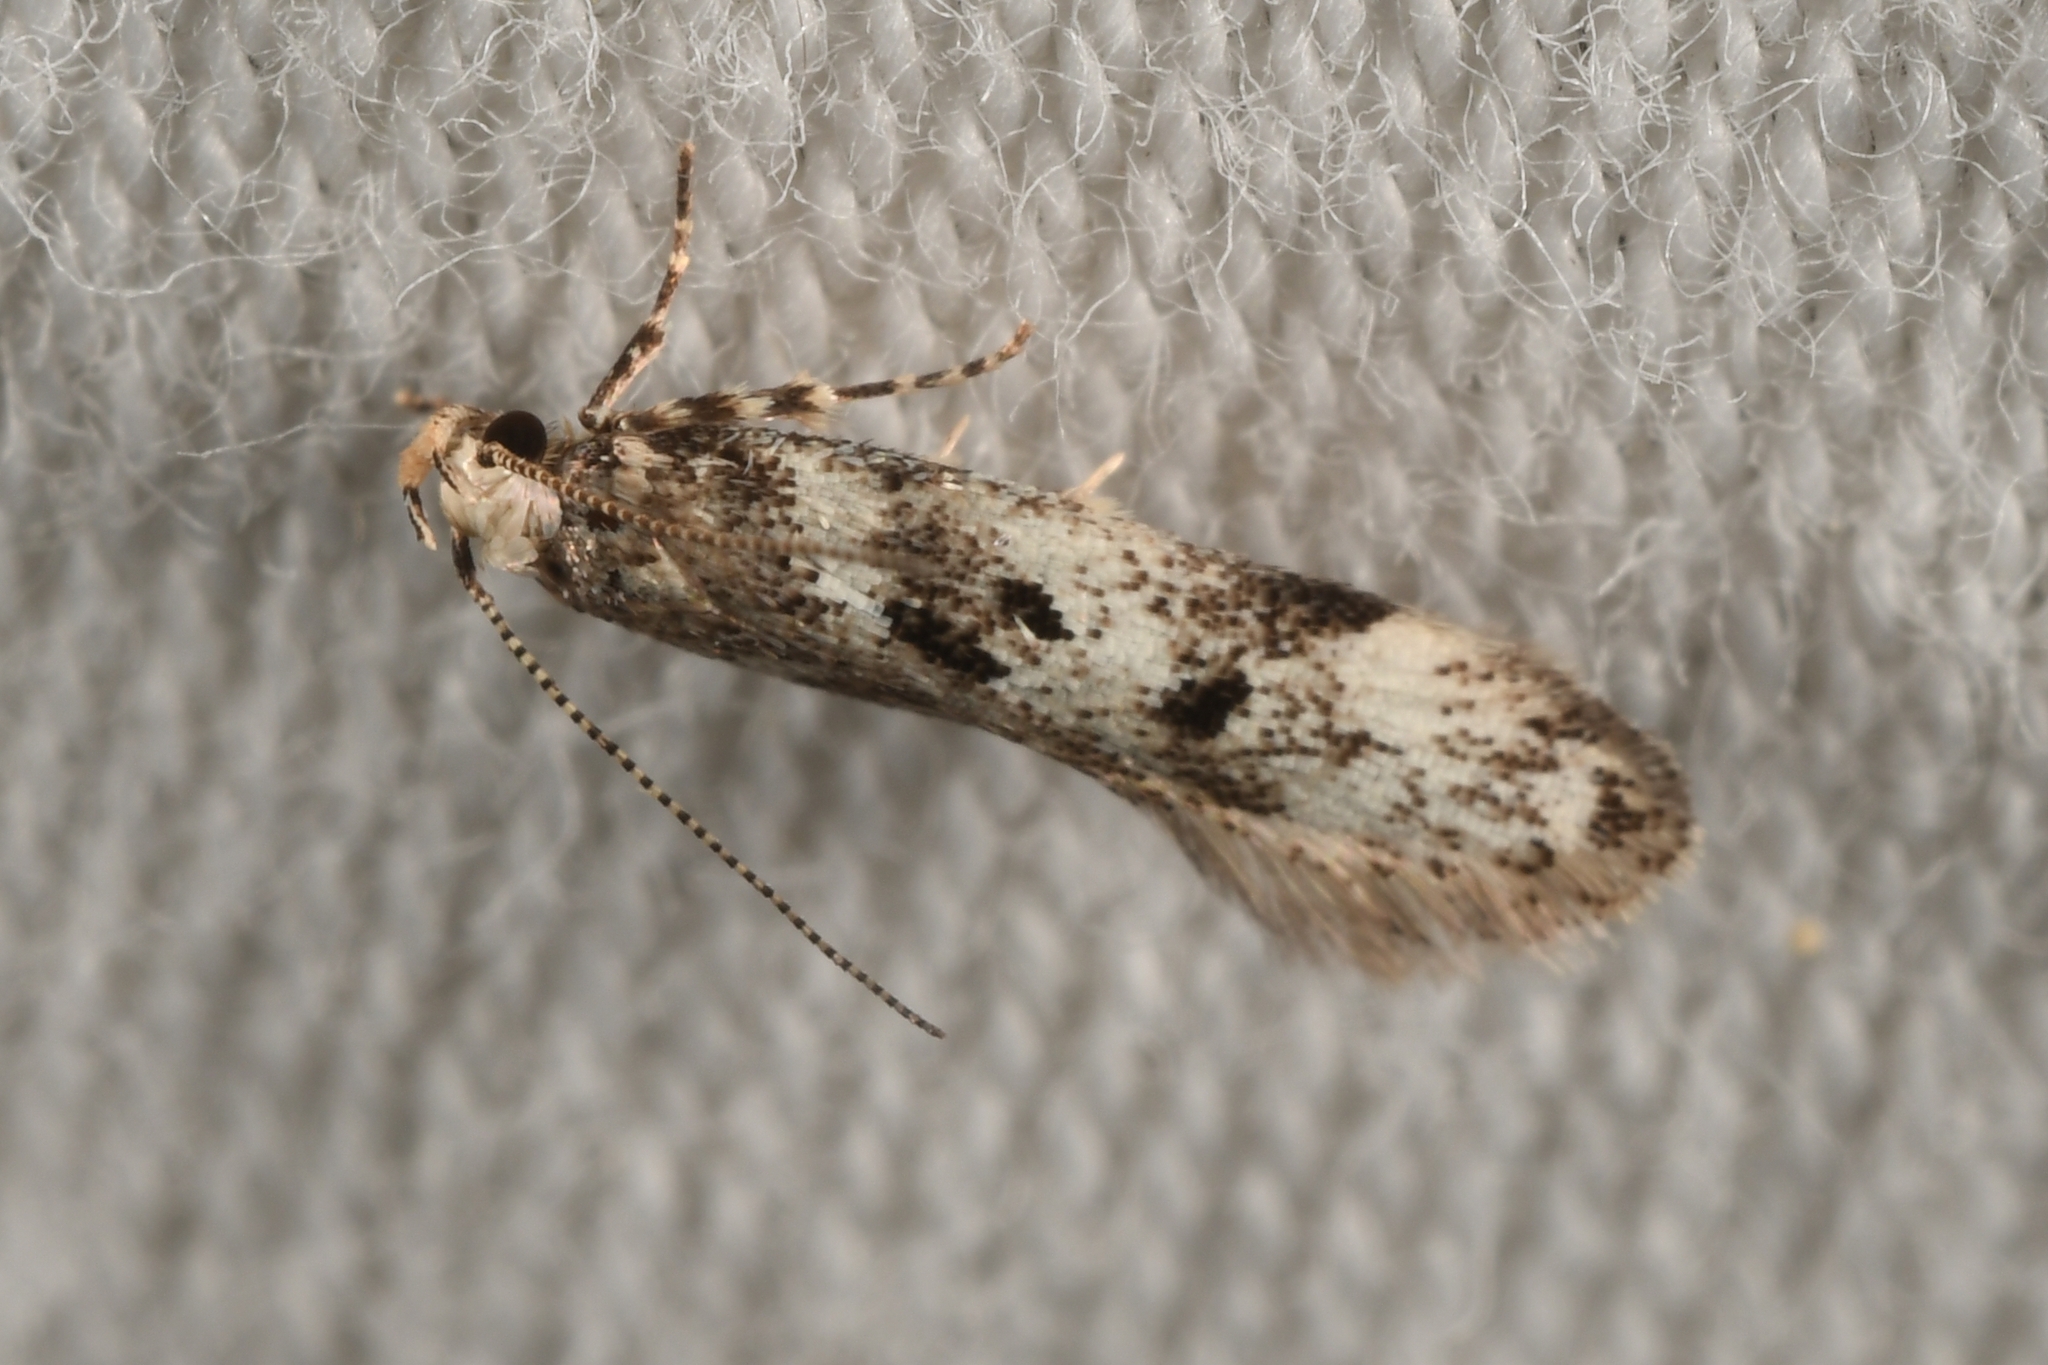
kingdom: Animalia
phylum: Arthropoda
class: Insecta
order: Lepidoptera
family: Gelechiidae
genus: Chionodes
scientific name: Chionodes electella
